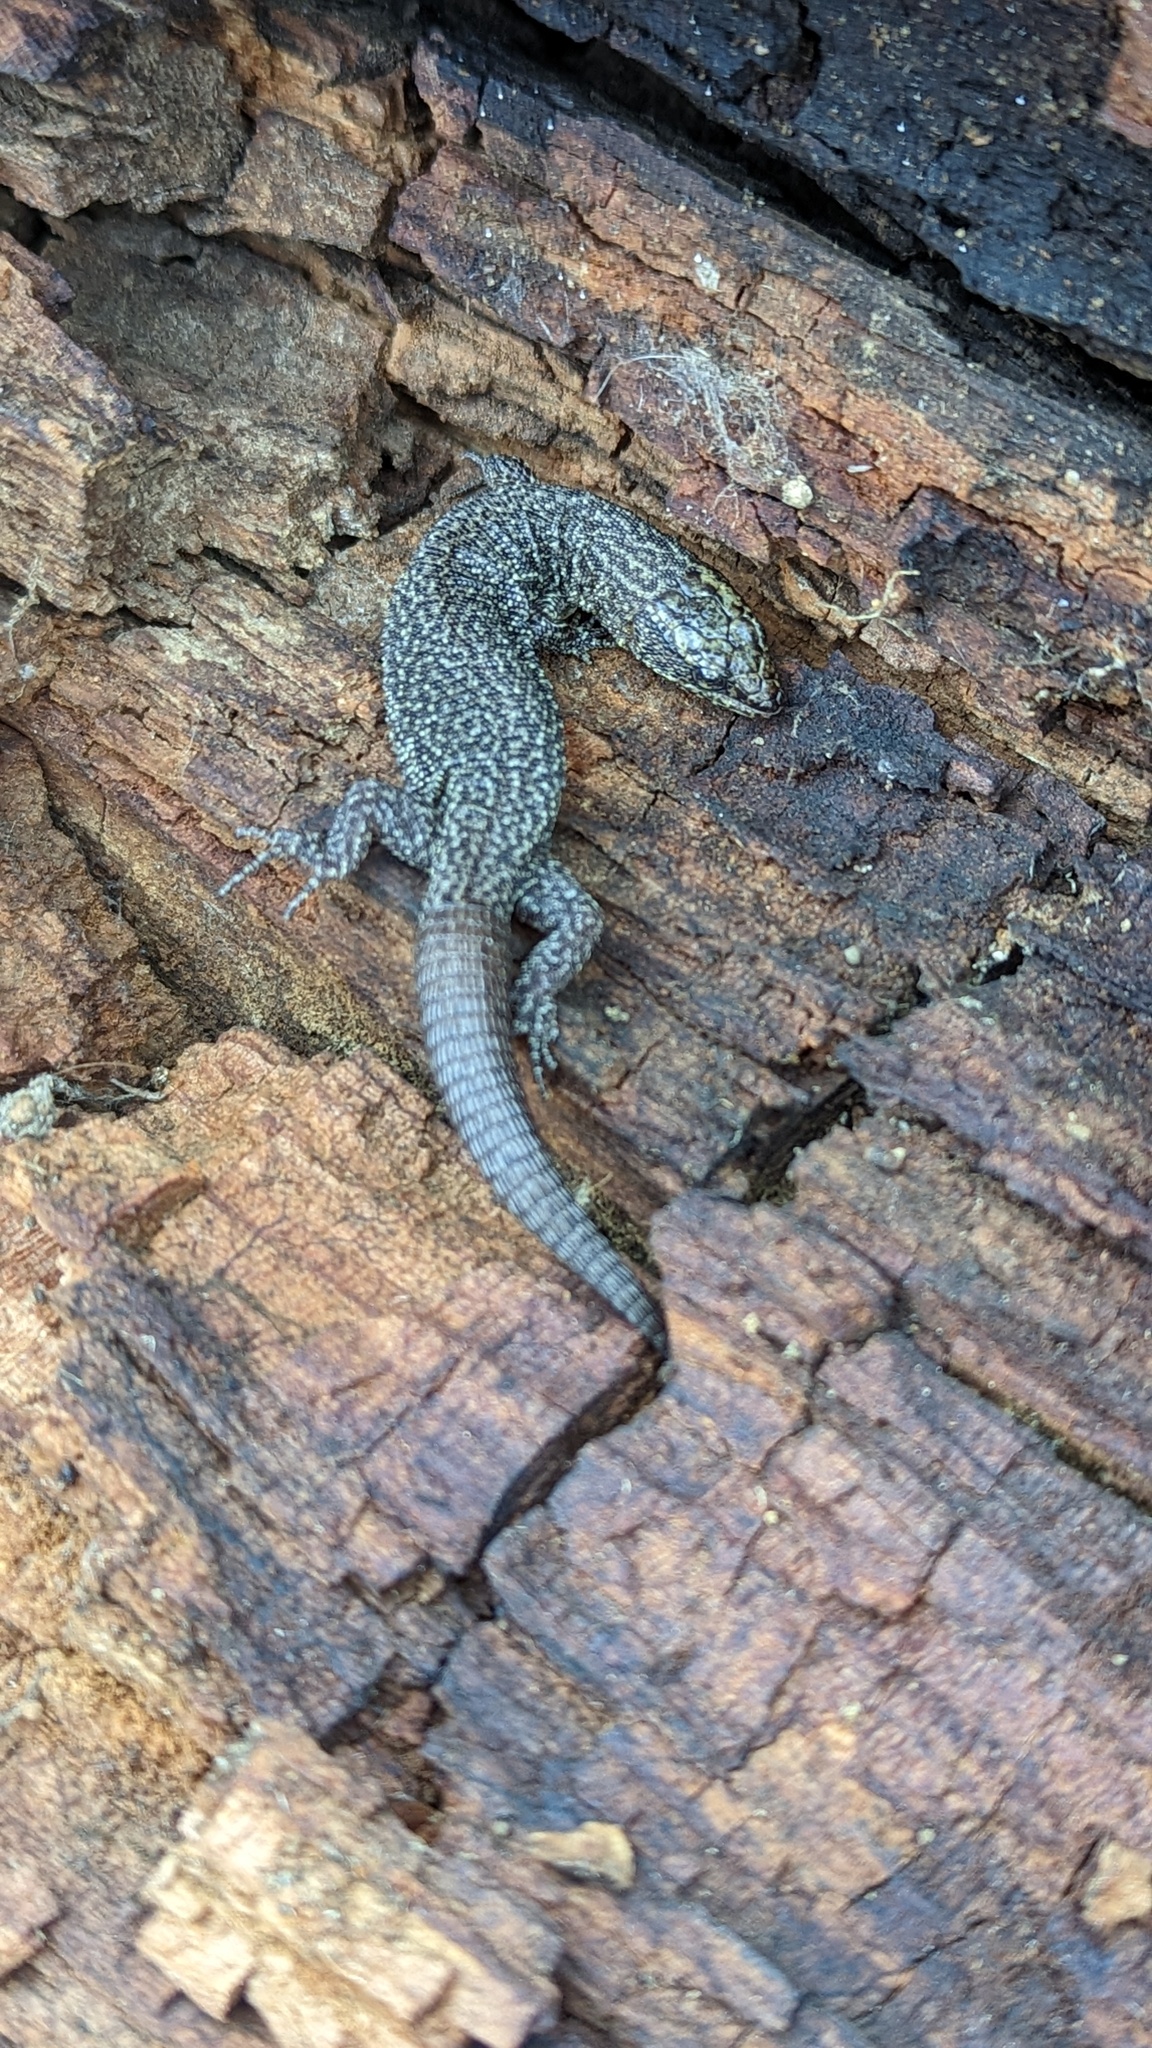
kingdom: Animalia
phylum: Chordata
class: Squamata
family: Xantusiidae
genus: Xantusia
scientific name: Xantusia sierrae
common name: Sierra night lizard
